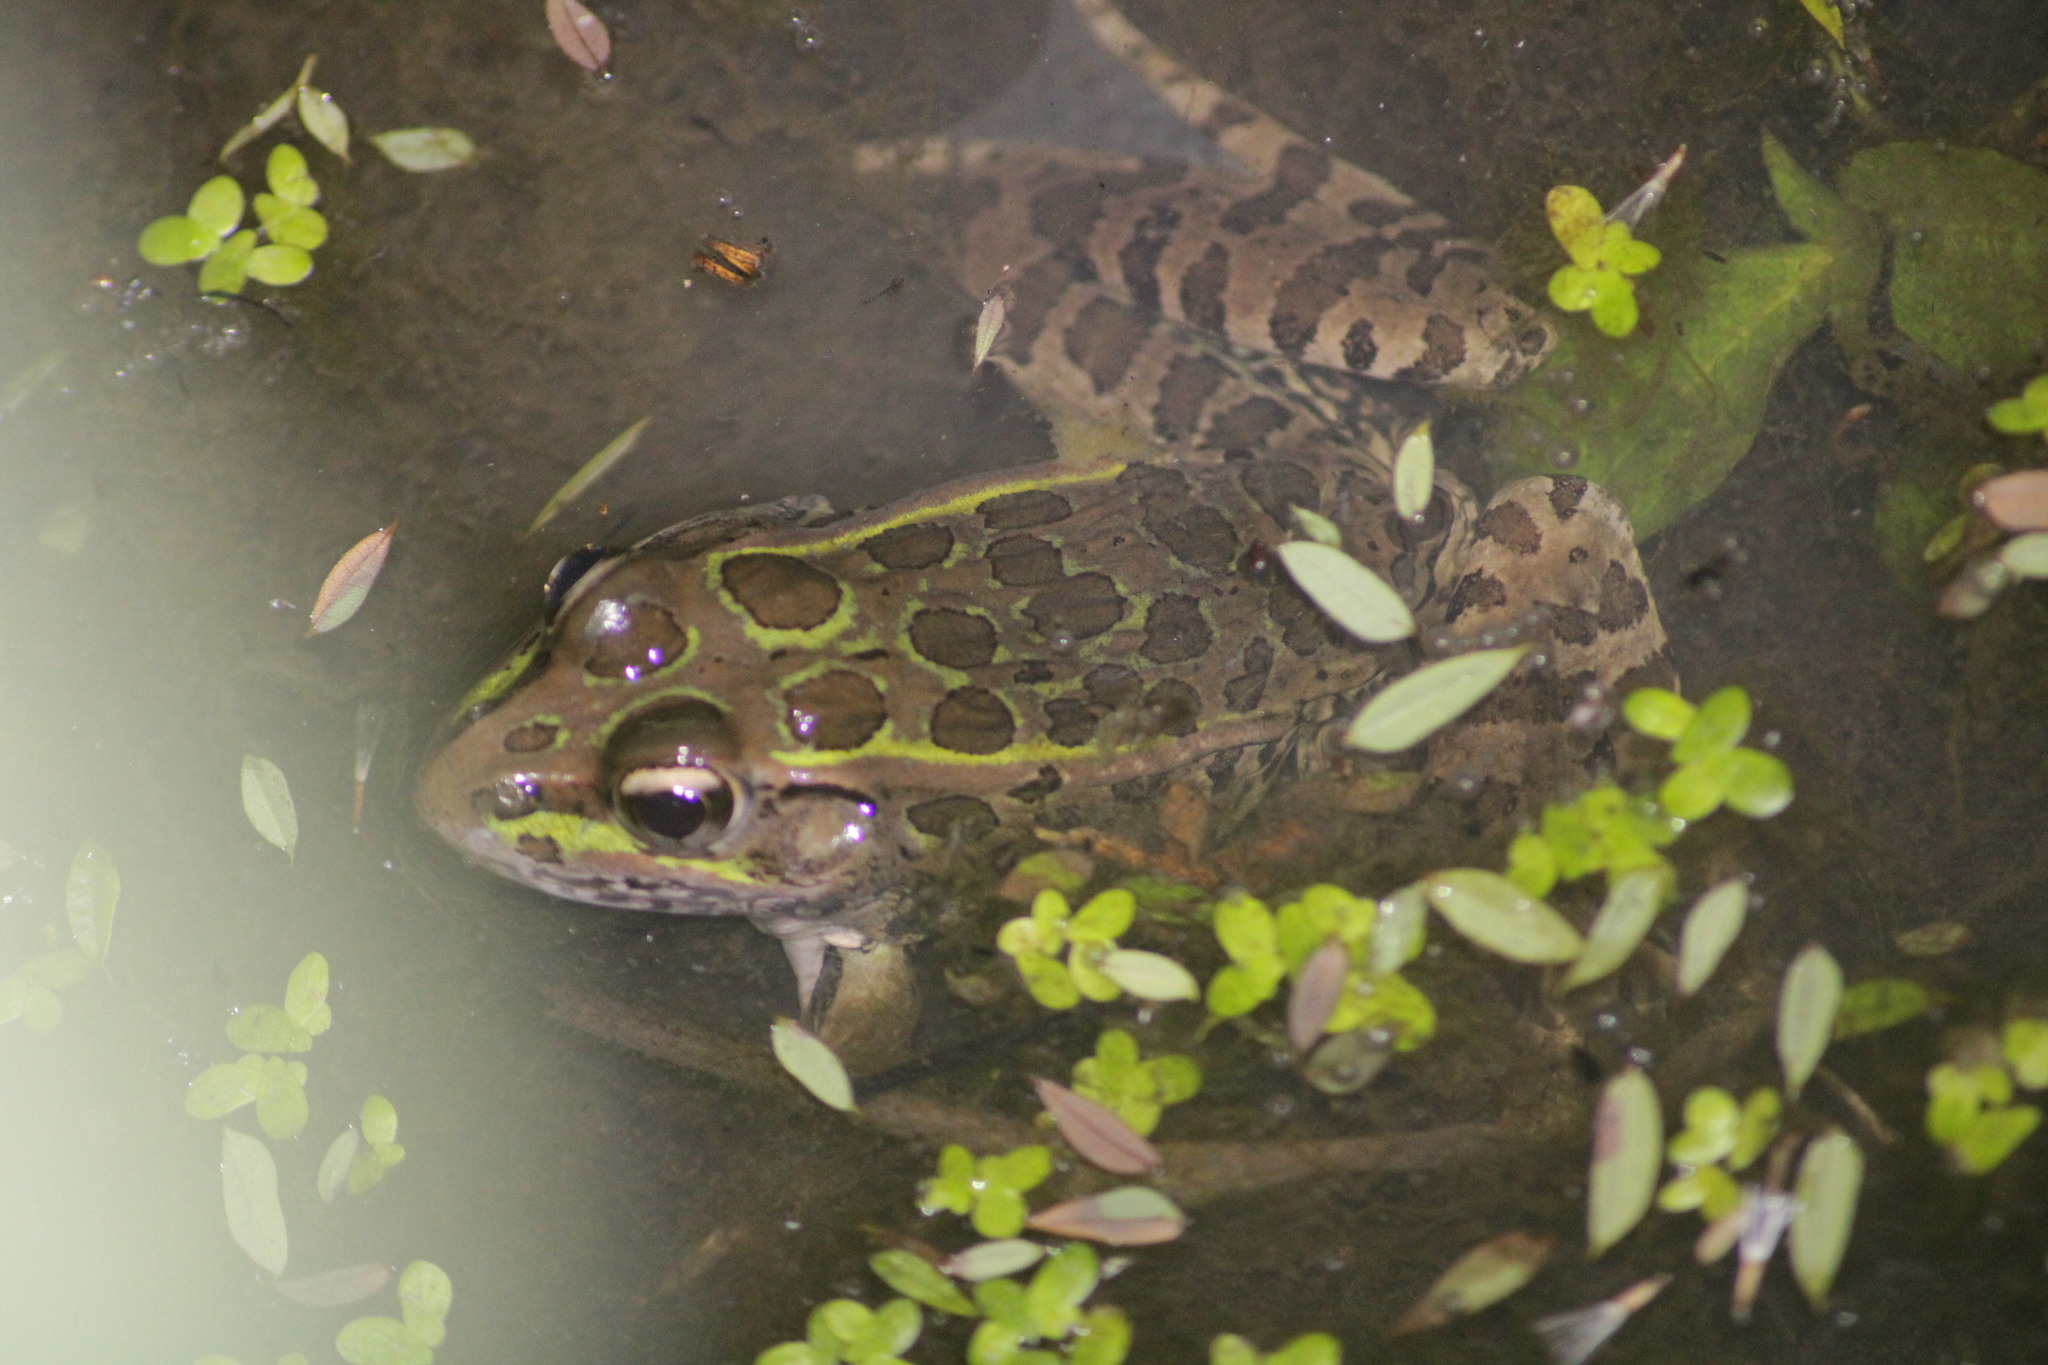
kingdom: Animalia
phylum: Chordata
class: Amphibia
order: Anura
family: Ranidae
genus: Lithobates
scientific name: Lithobates neovolcanicus
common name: Transverse volcanic leopard frog
